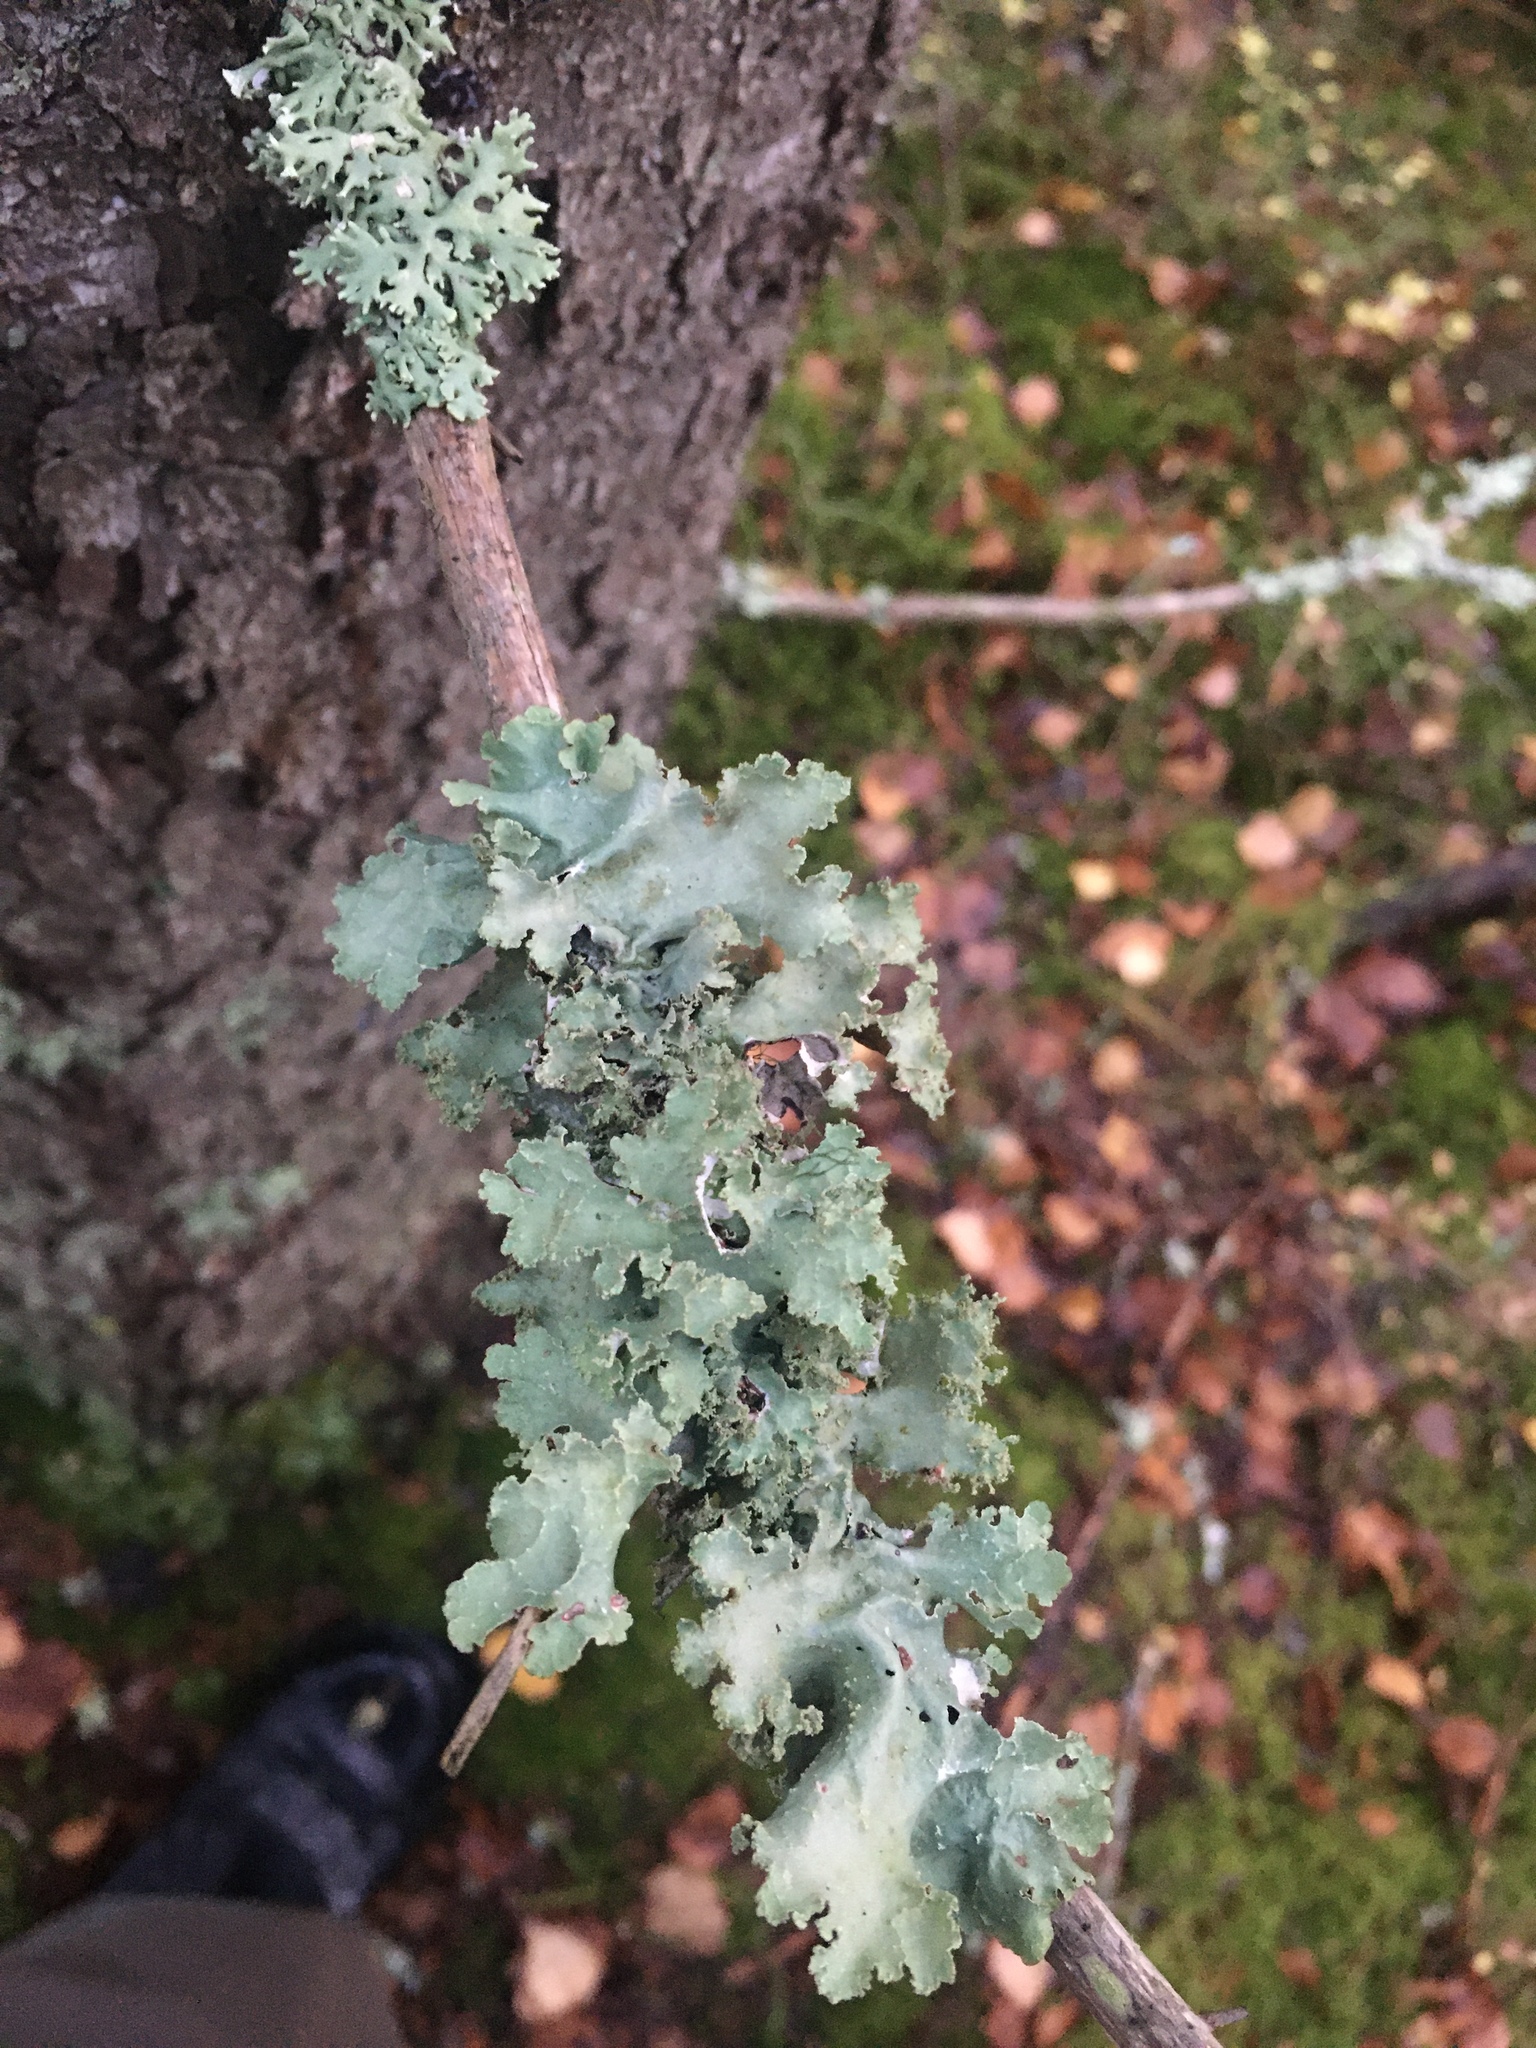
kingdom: Fungi
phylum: Ascomycota
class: Lecanoromycetes
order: Lecanorales
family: Parmeliaceae
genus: Platismatia
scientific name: Platismatia glauca
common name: Varied rag lichen
